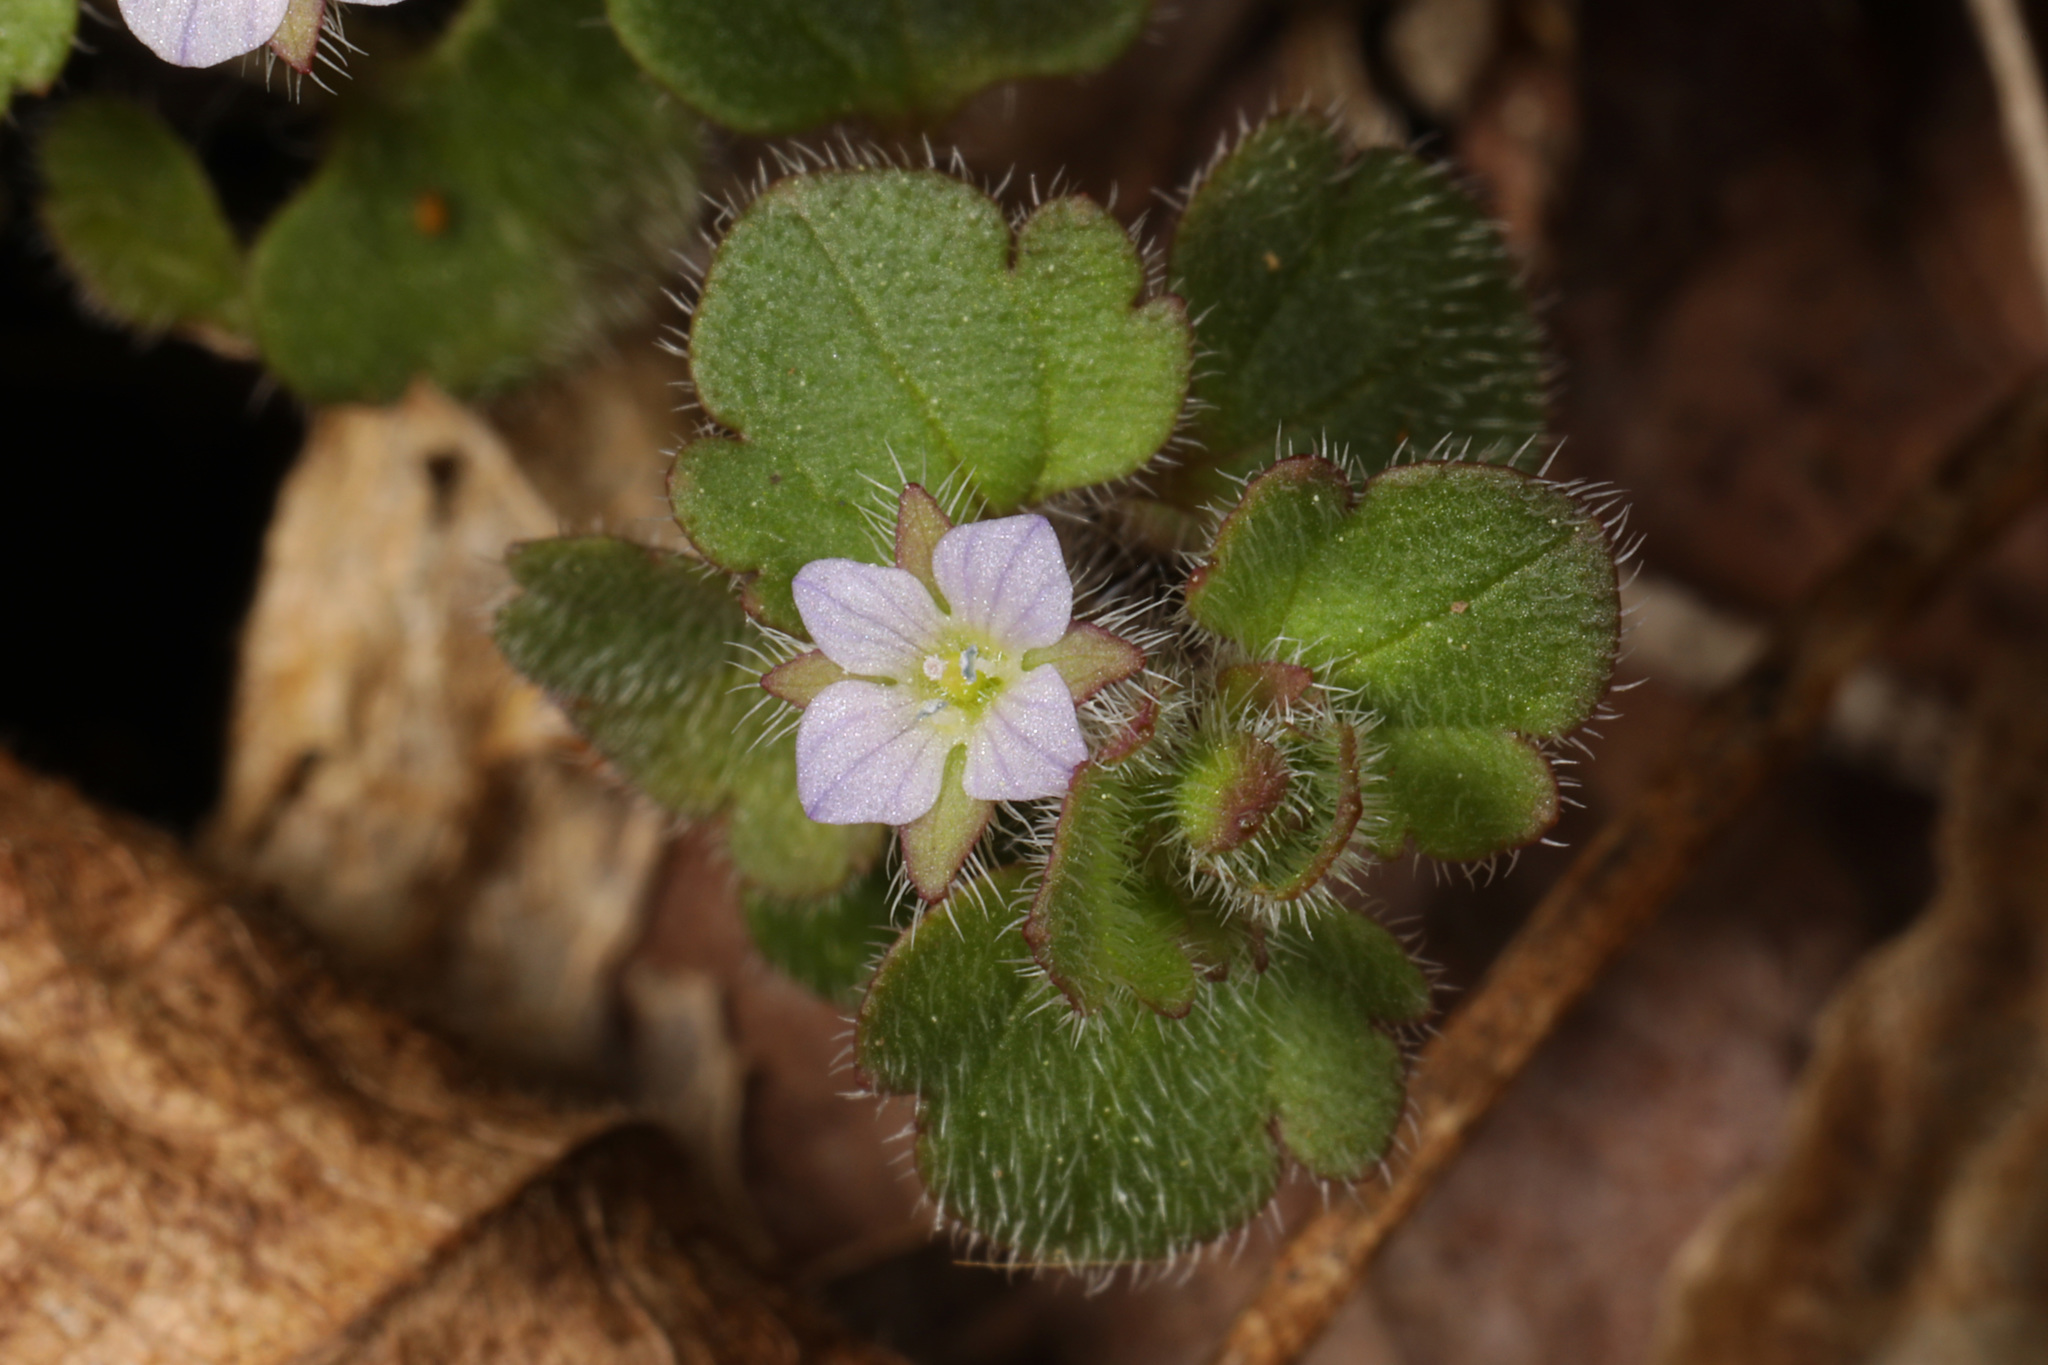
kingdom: Plantae
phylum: Tracheophyta
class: Magnoliopsida
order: Lamiales
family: Plantaginaceae
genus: Veronica
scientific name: Veronica sublobata
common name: False ivy-leaved speedwell
